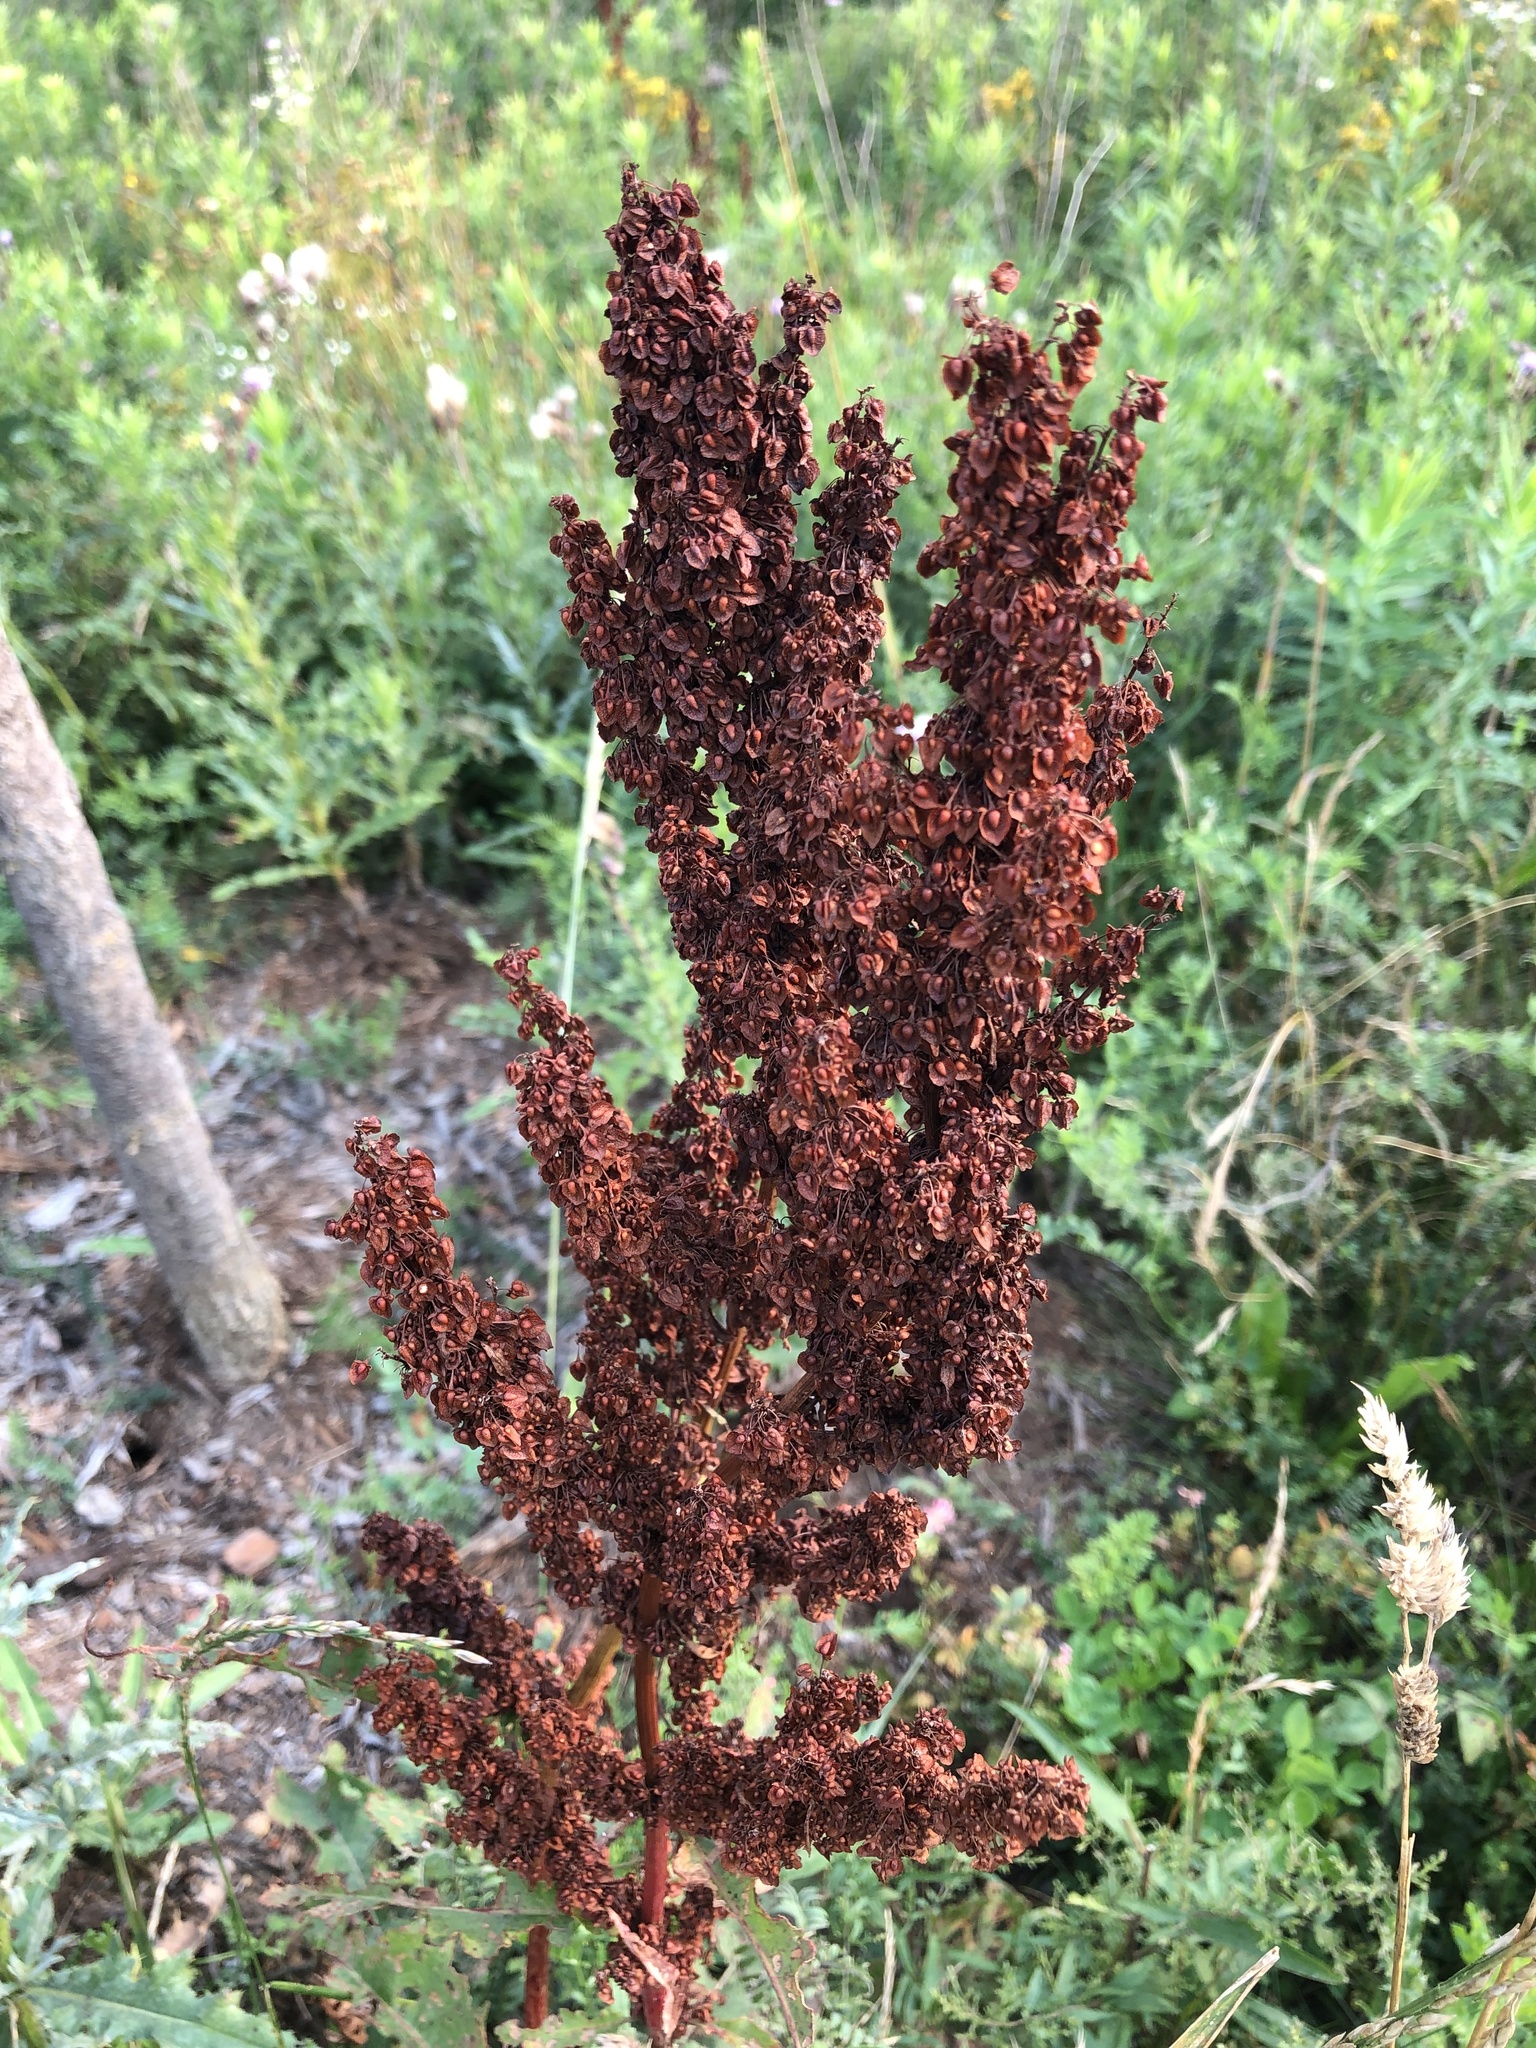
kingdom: Plantae
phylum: Tracheophyta
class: Magnoliopsida
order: Caryophyllales
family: Polygonaceae
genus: Rumex
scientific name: Rumex crispus
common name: Curled dock
